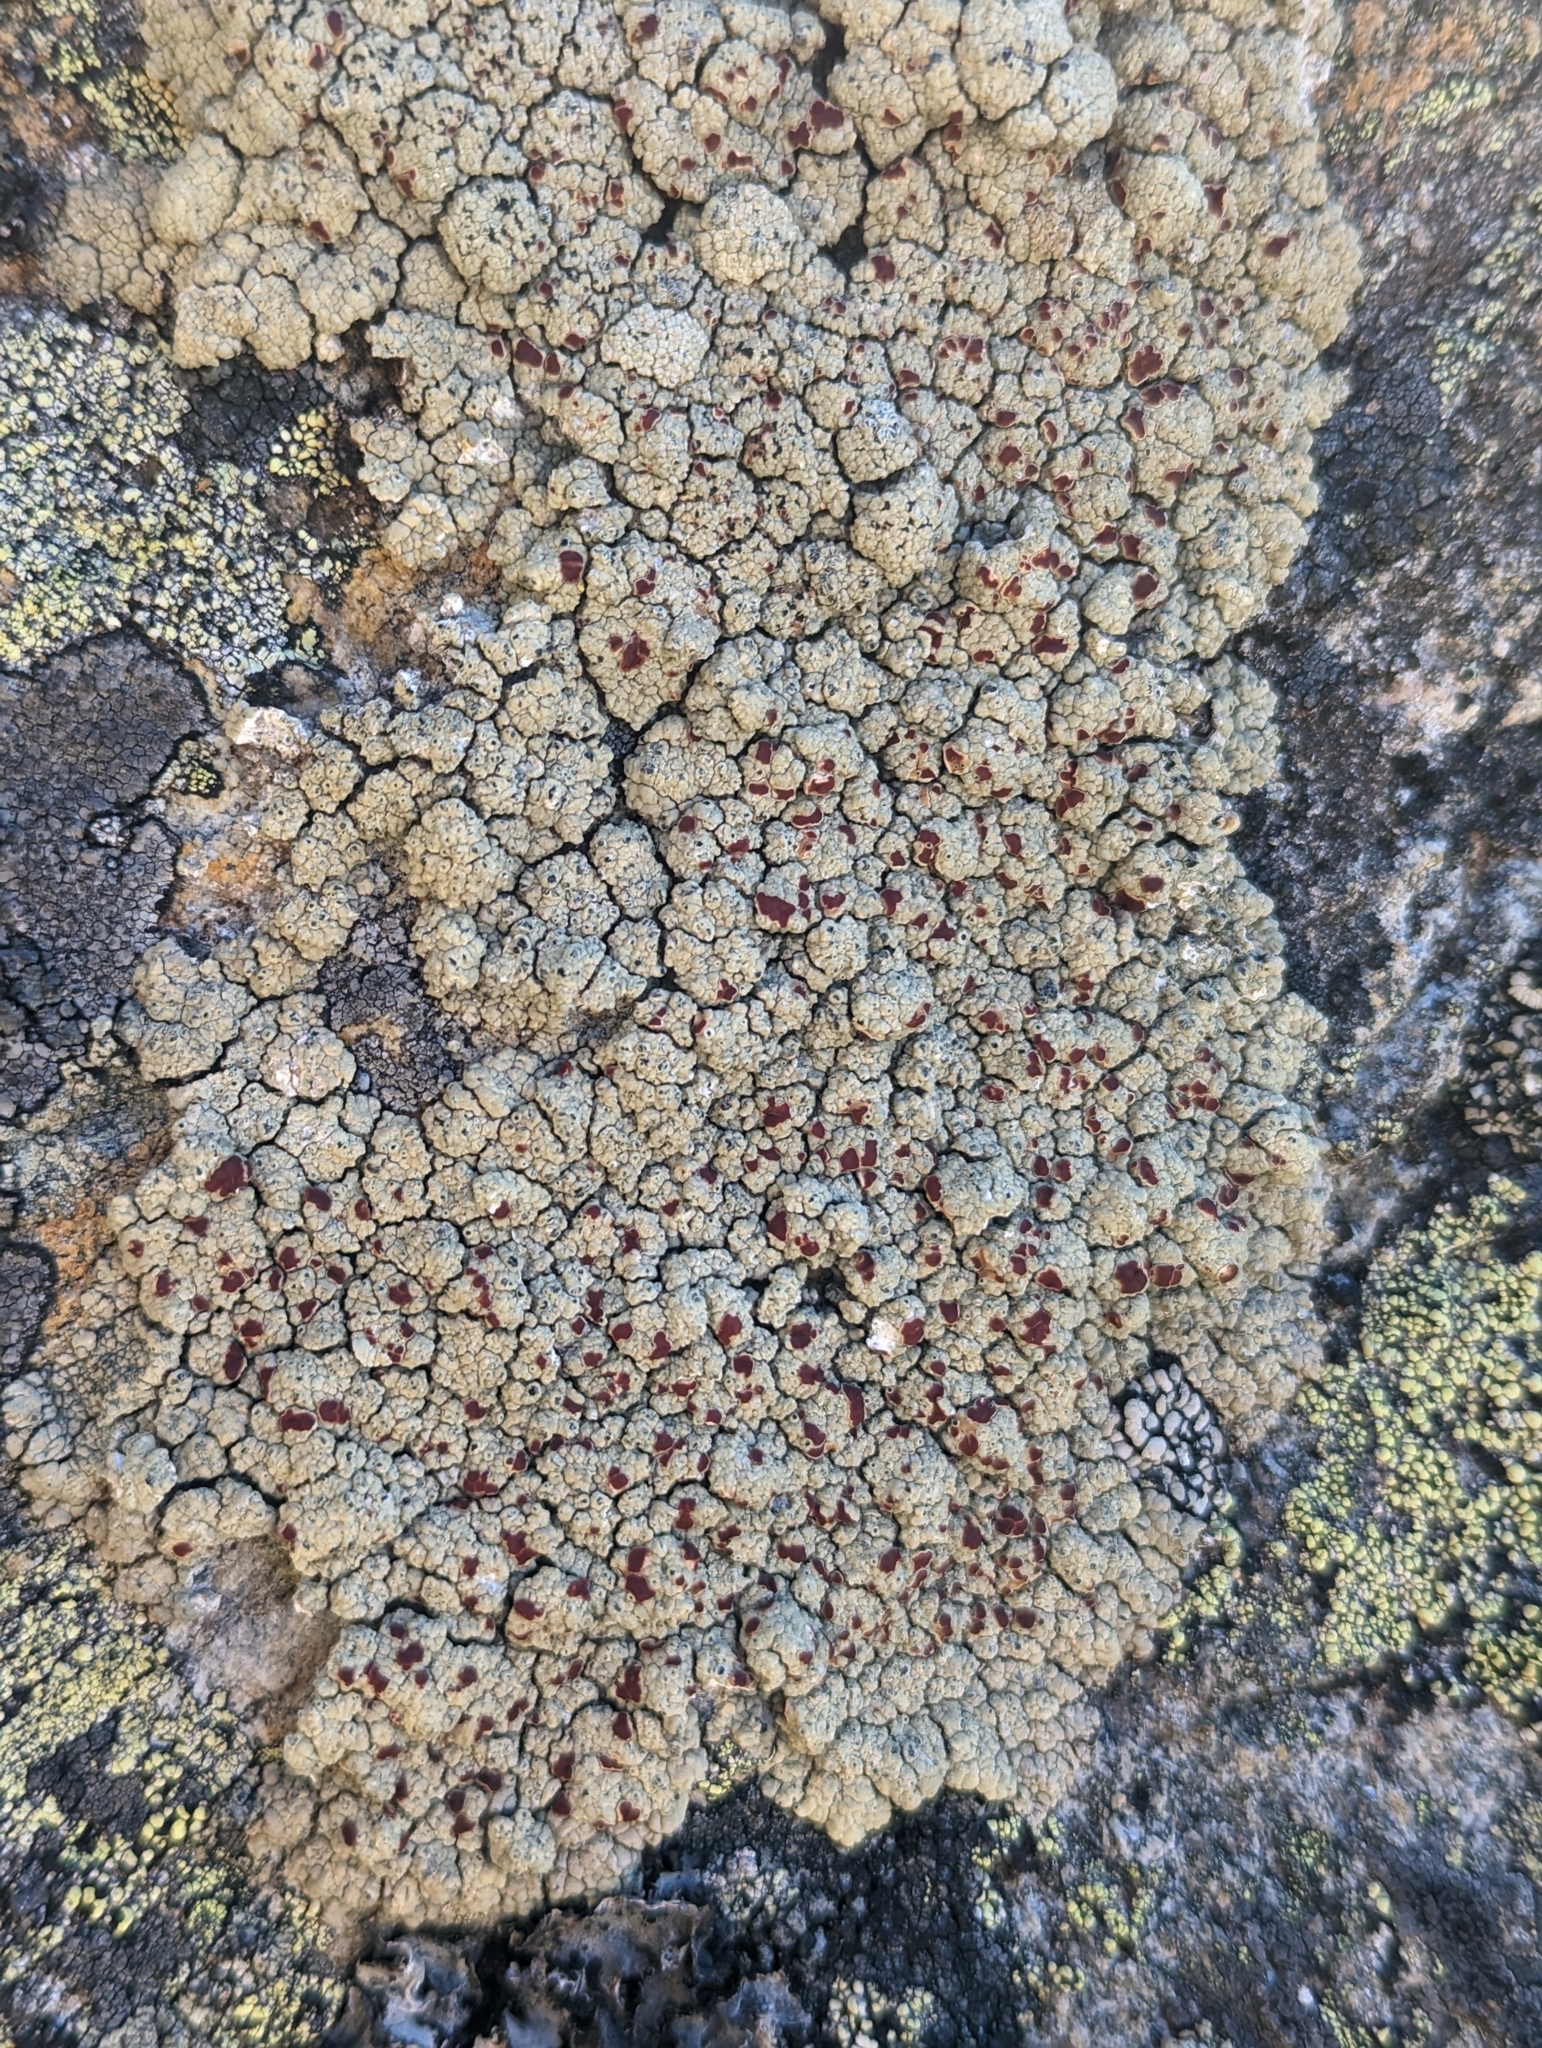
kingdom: Fungi
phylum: Ascomycota
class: Lecanoromycetes
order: Umbilicariales
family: Ophioparmaceae
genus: Ophioparma
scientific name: Ophioparma ventosa
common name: Blood-spot
